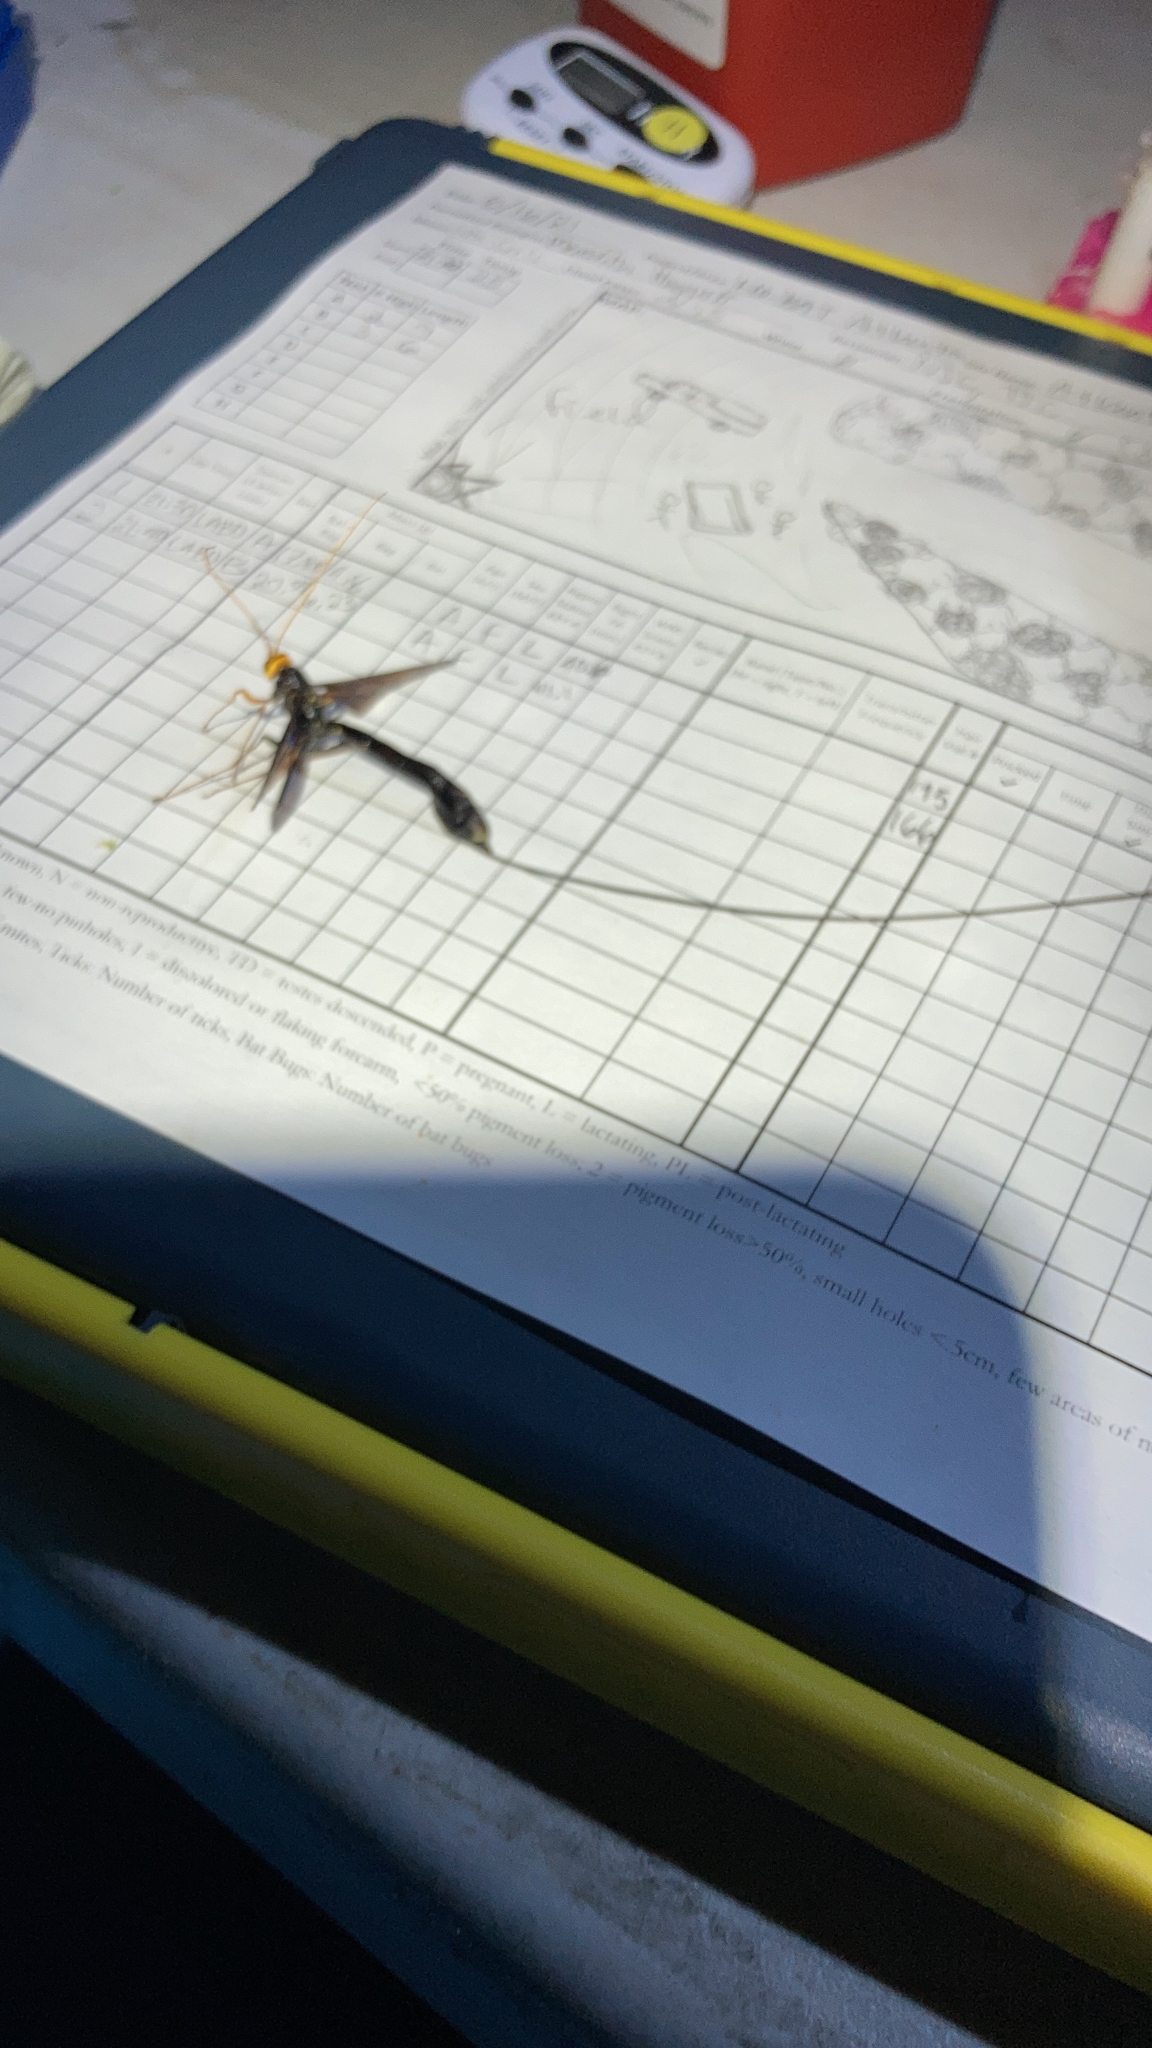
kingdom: Animalia
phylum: Arthropoda
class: Insecta
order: Hymenoptera
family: Ichneumonidae
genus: Megarhyssa
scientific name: Megarhyssa atrata
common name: Black giant ichneumonid wasp
